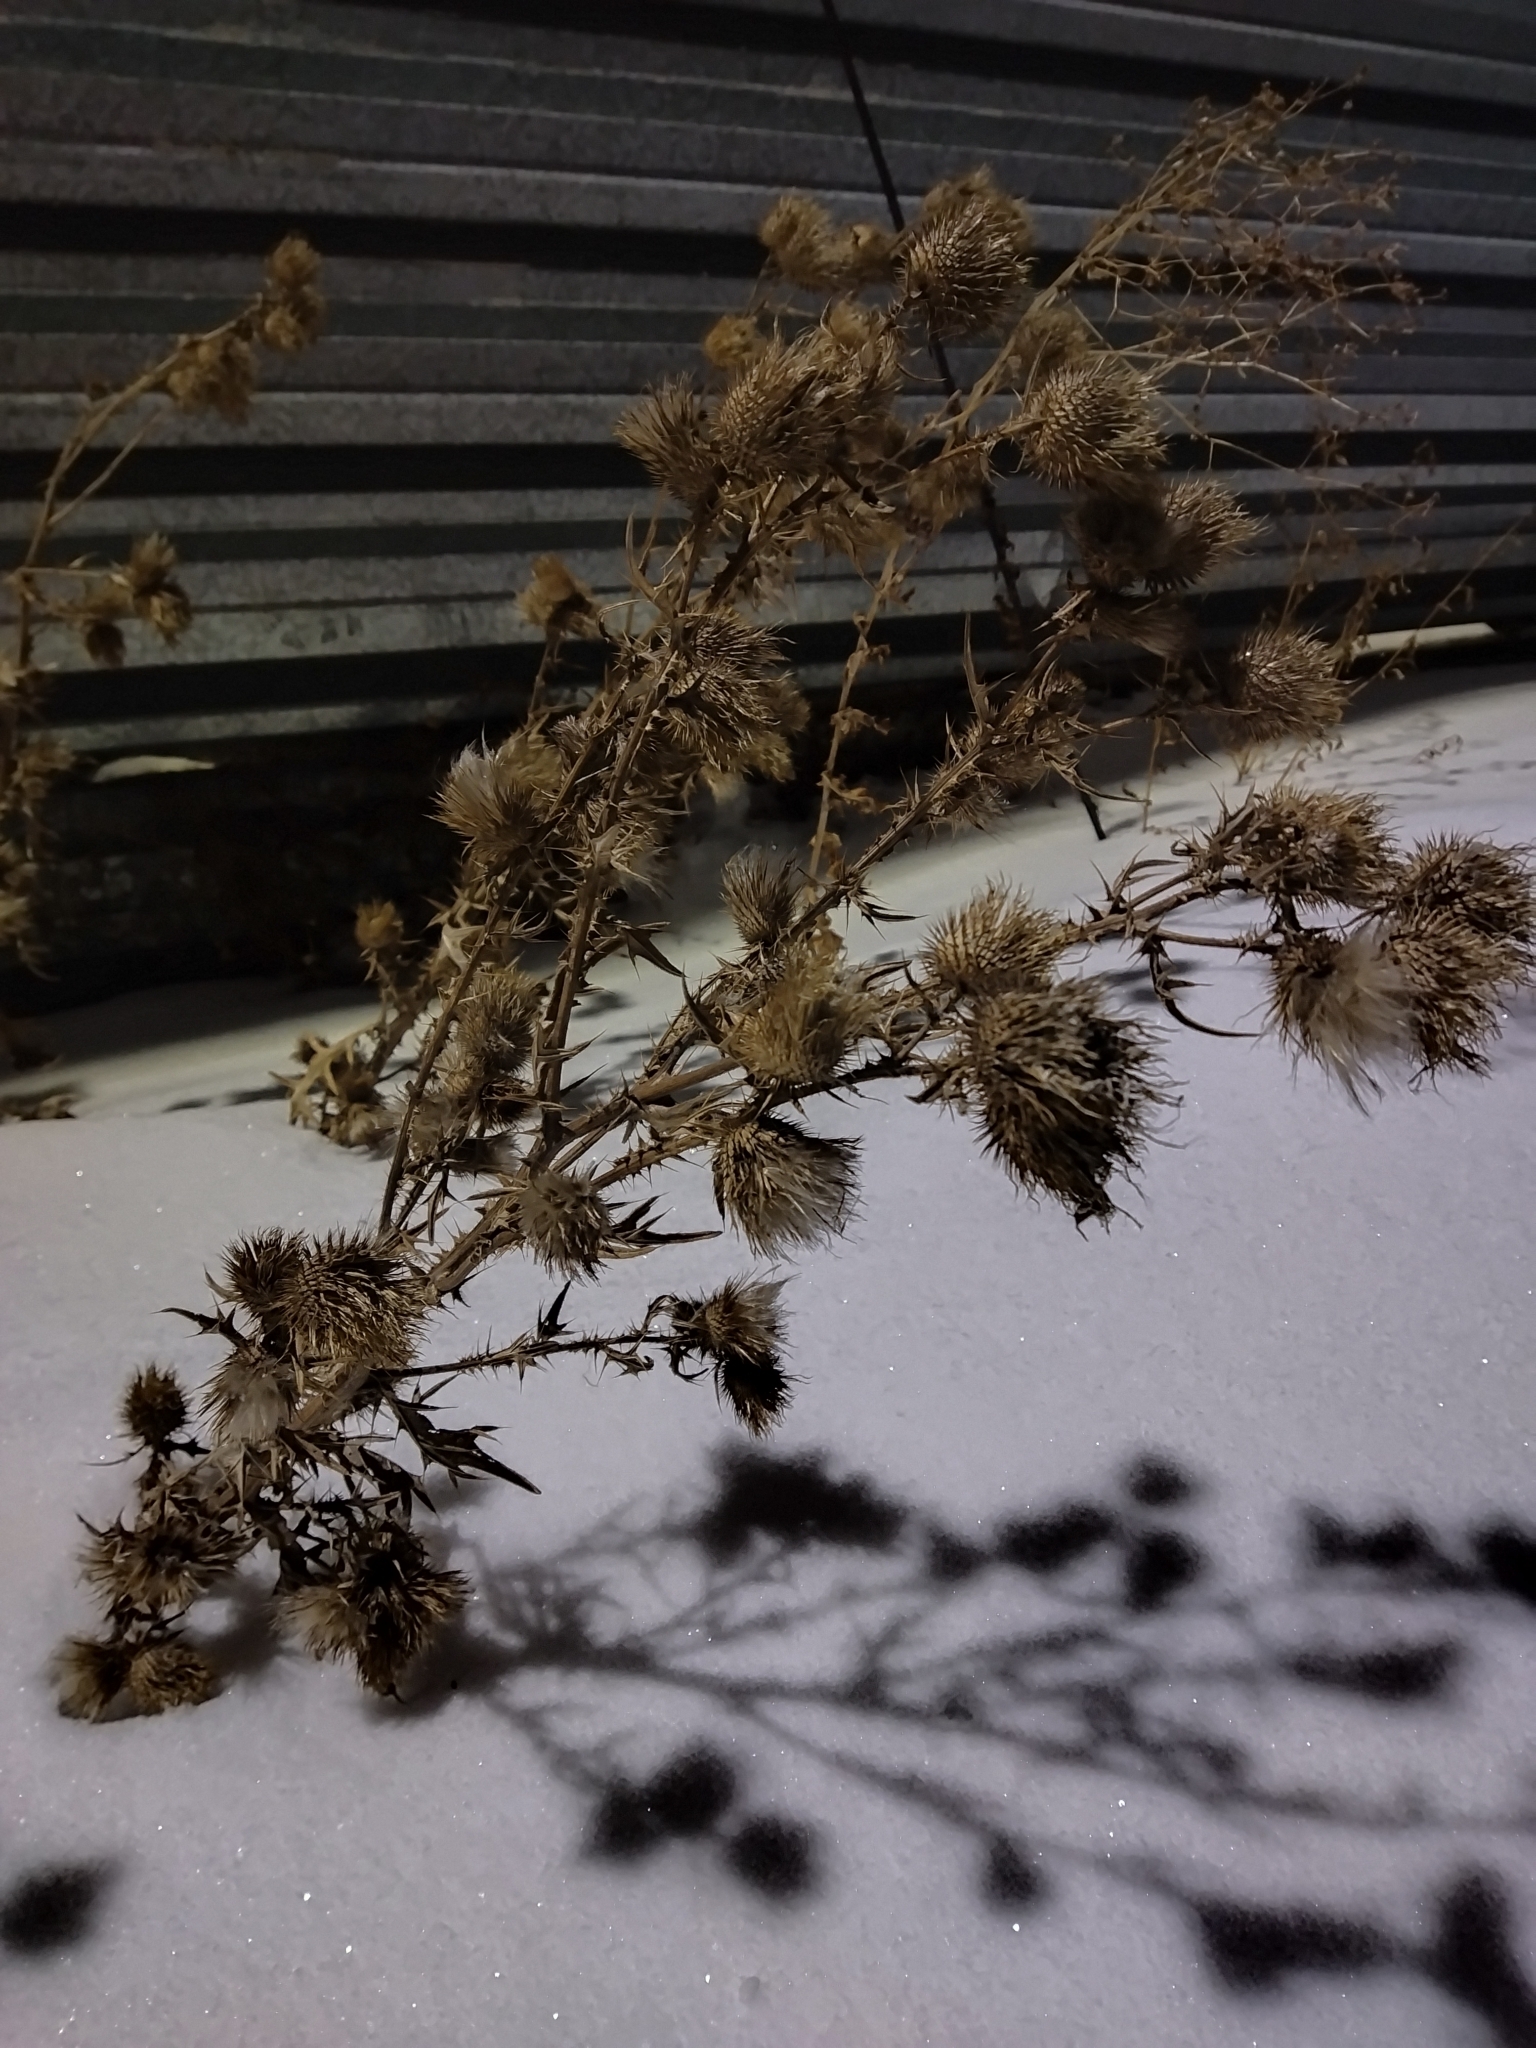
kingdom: Plantae
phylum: Tracheophyta
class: Magnoliopsida
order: Asterales
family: Asteraceae
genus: Cirsium
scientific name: Cirsium vulgare
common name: Bull thistle
